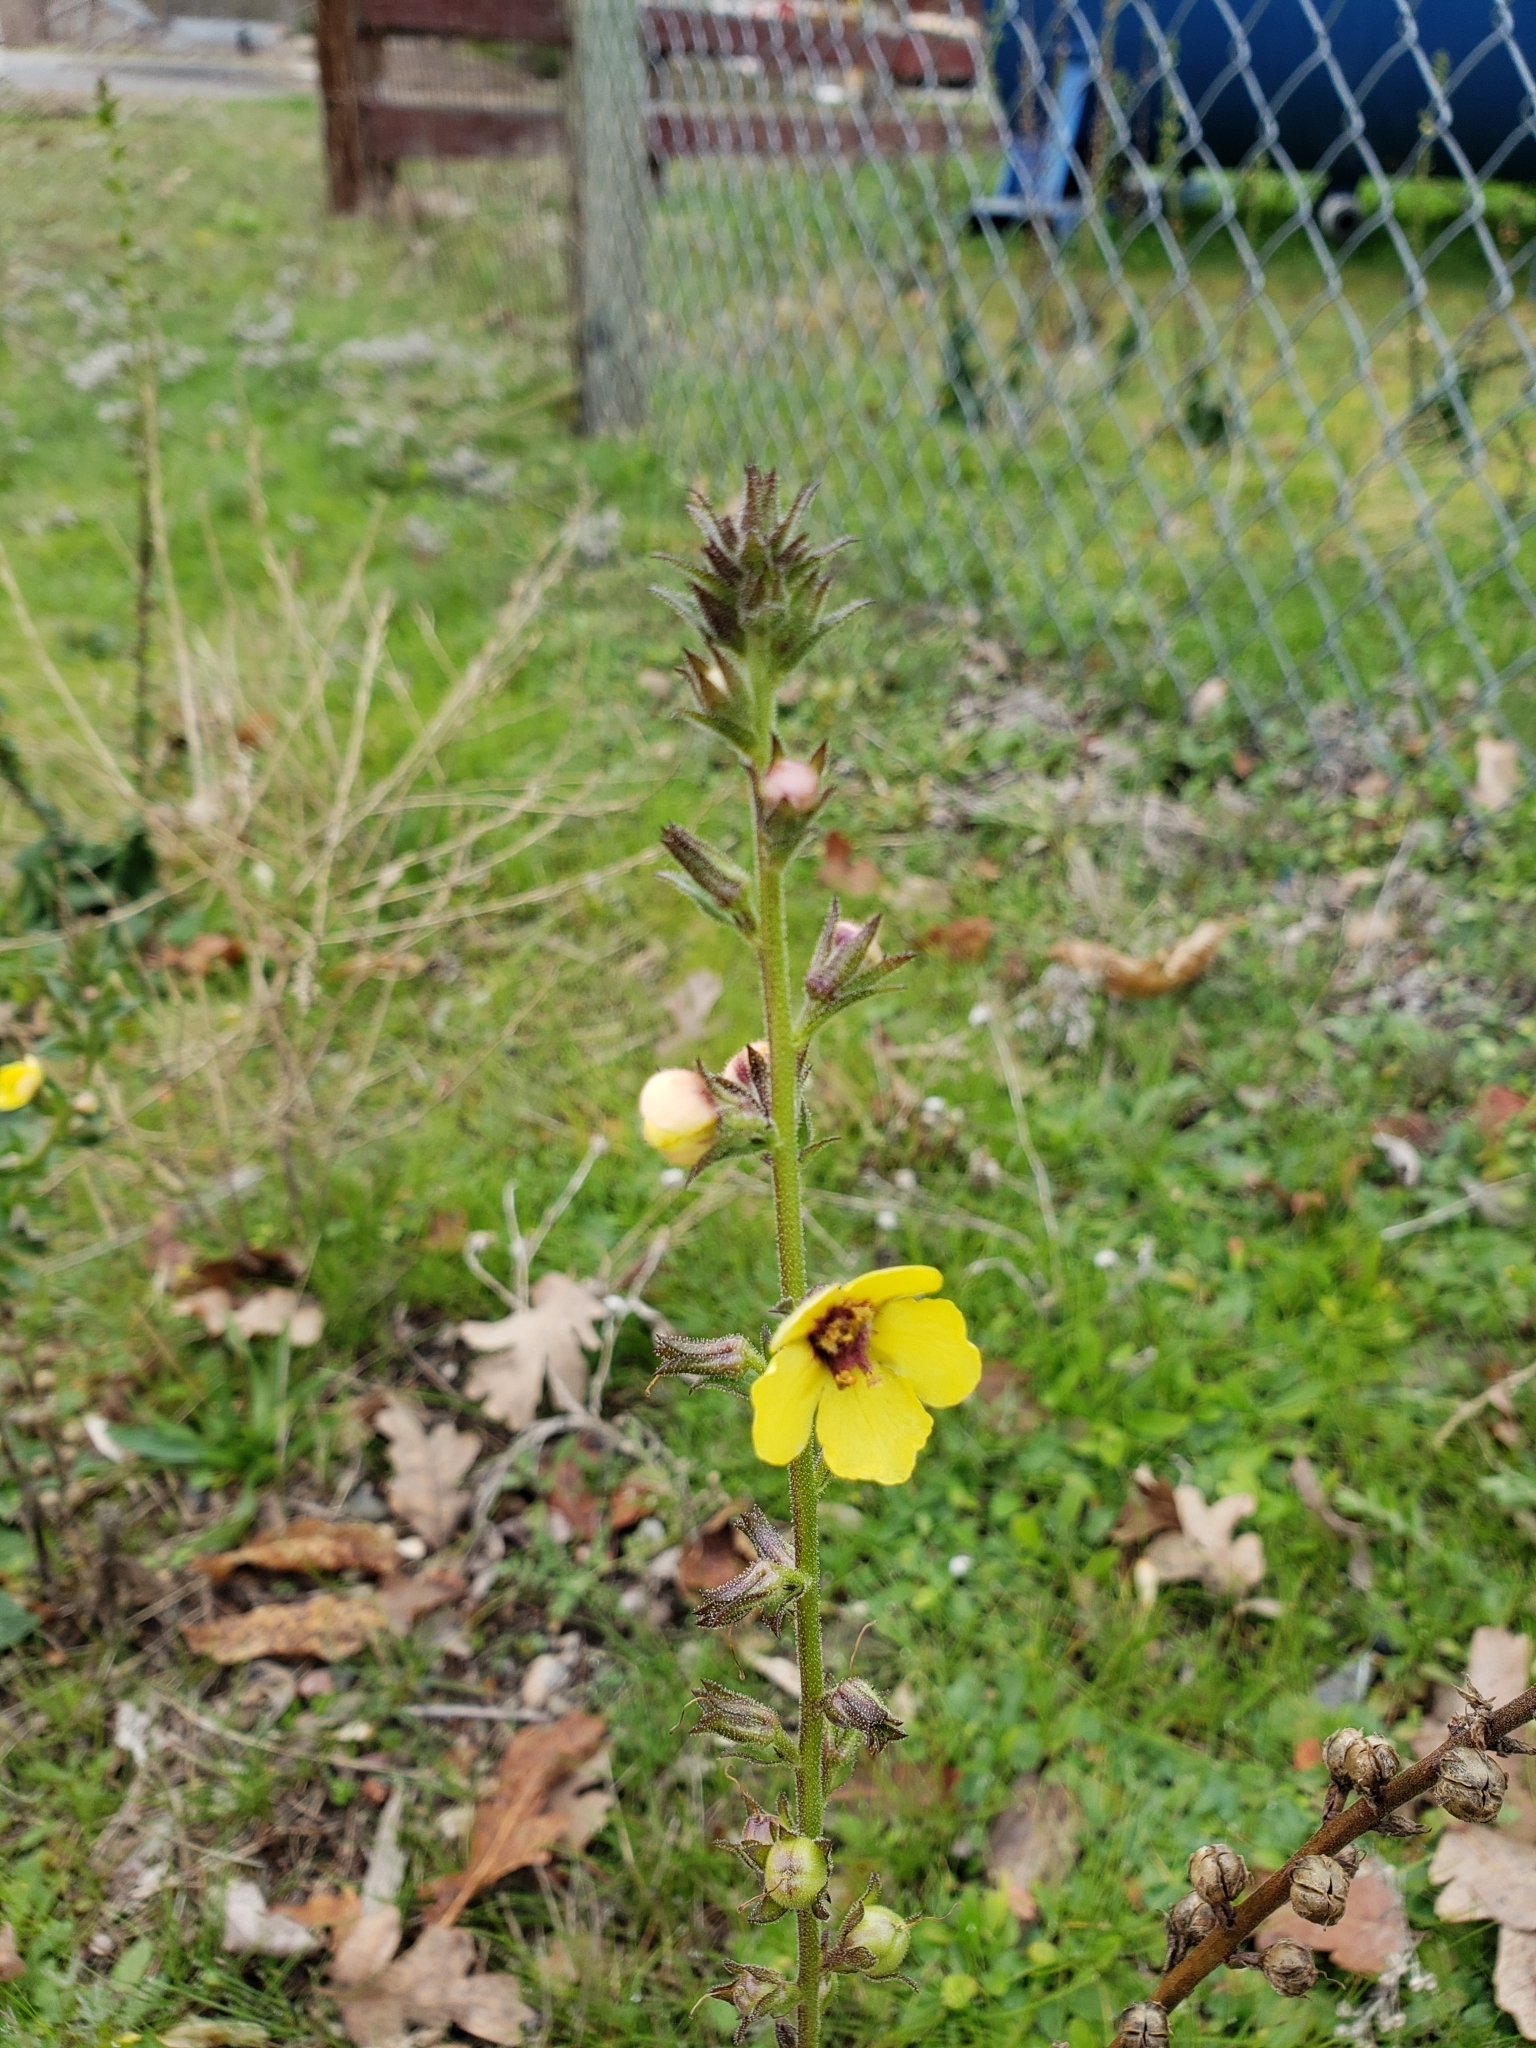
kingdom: Plantae
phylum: Tracheophyta
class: Magnoliopsida
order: Lamiales
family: Scrophulariaceae
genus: Verbascum
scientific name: Verbascum virgatum
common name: Twiggy mullein
